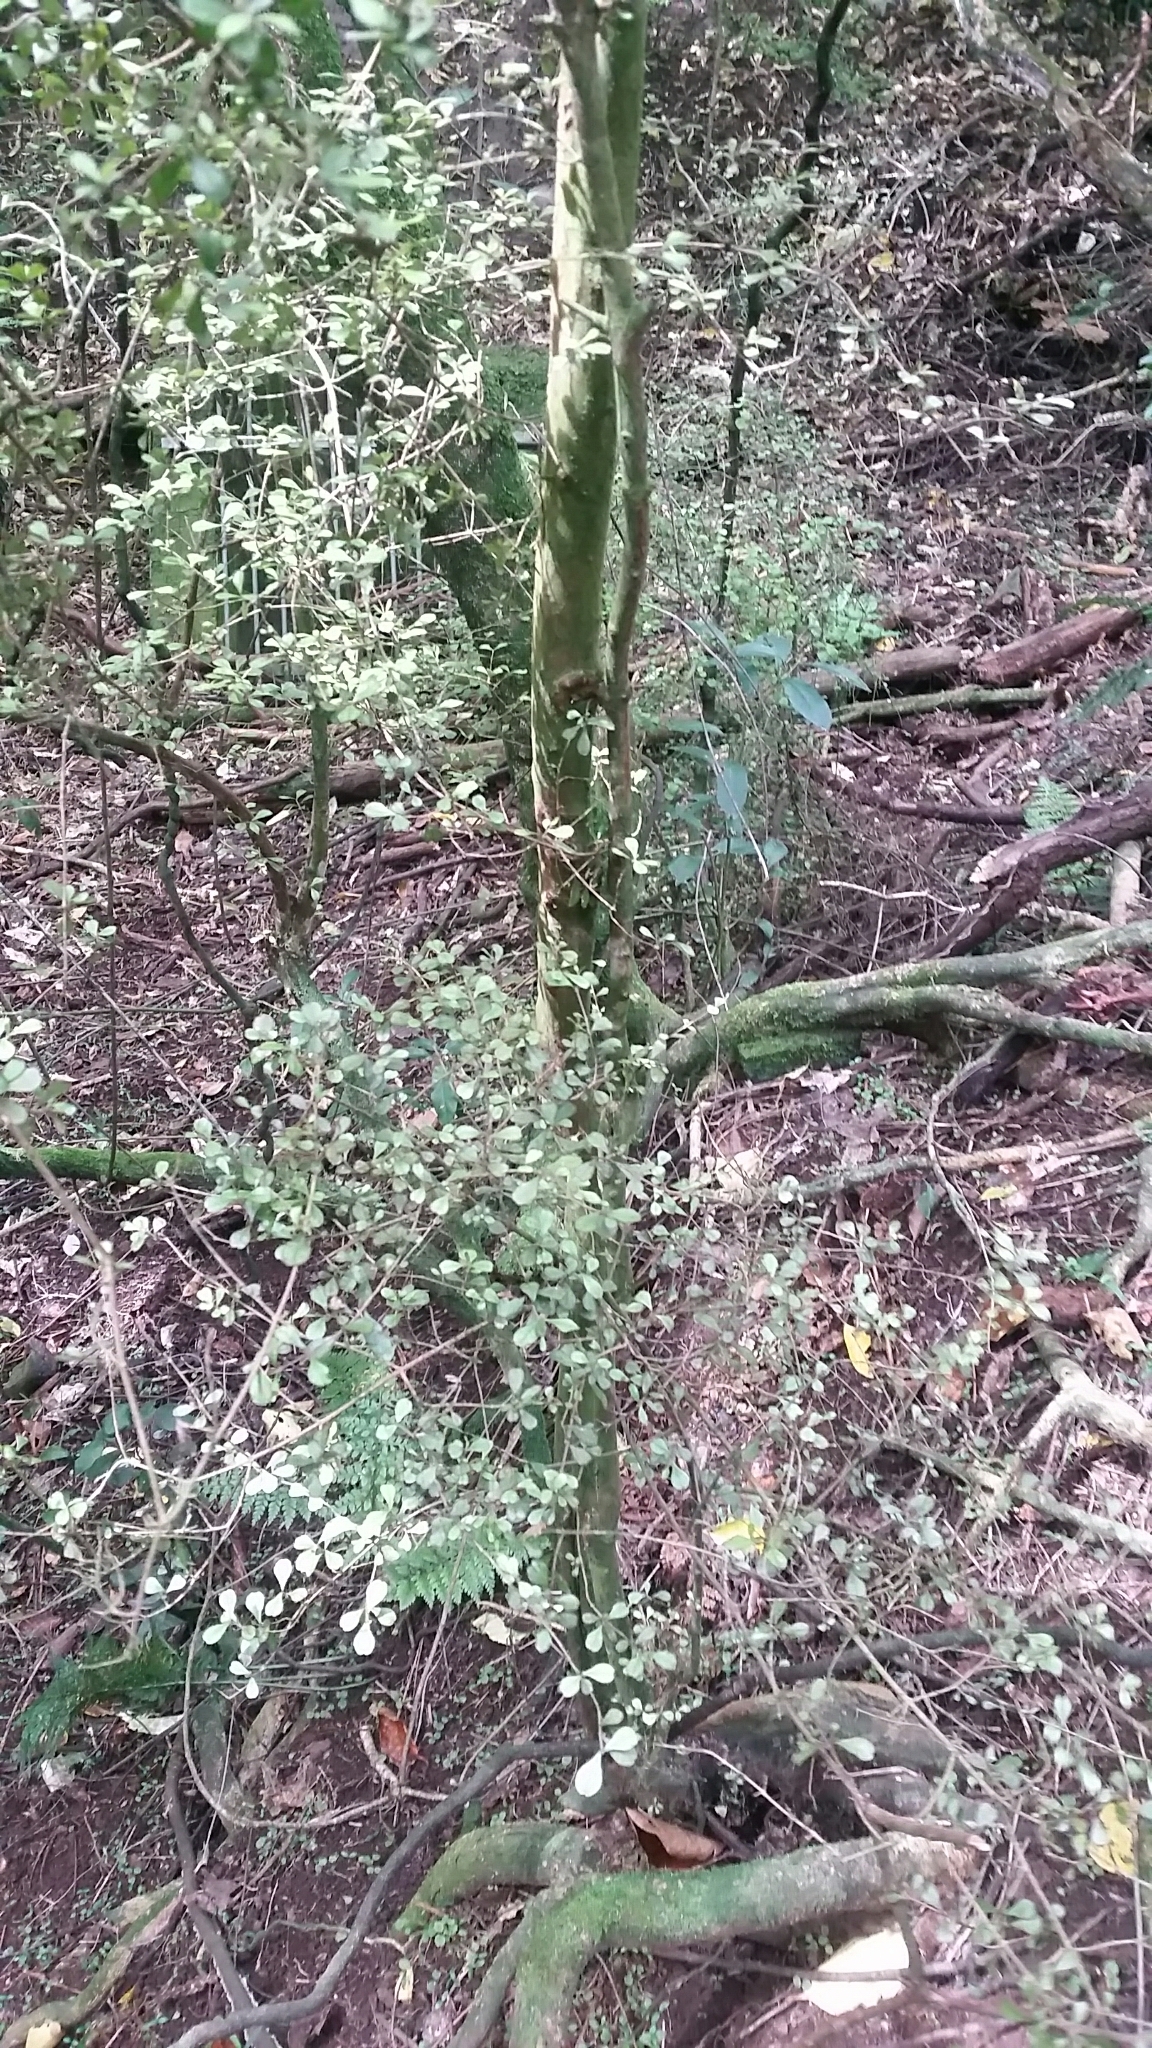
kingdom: Plantae
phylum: Tracheophyta
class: Magnoliopsida
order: Myrtales
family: Myrtaceae
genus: Lophomyrtus
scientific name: Lophomyrtus obcordata
